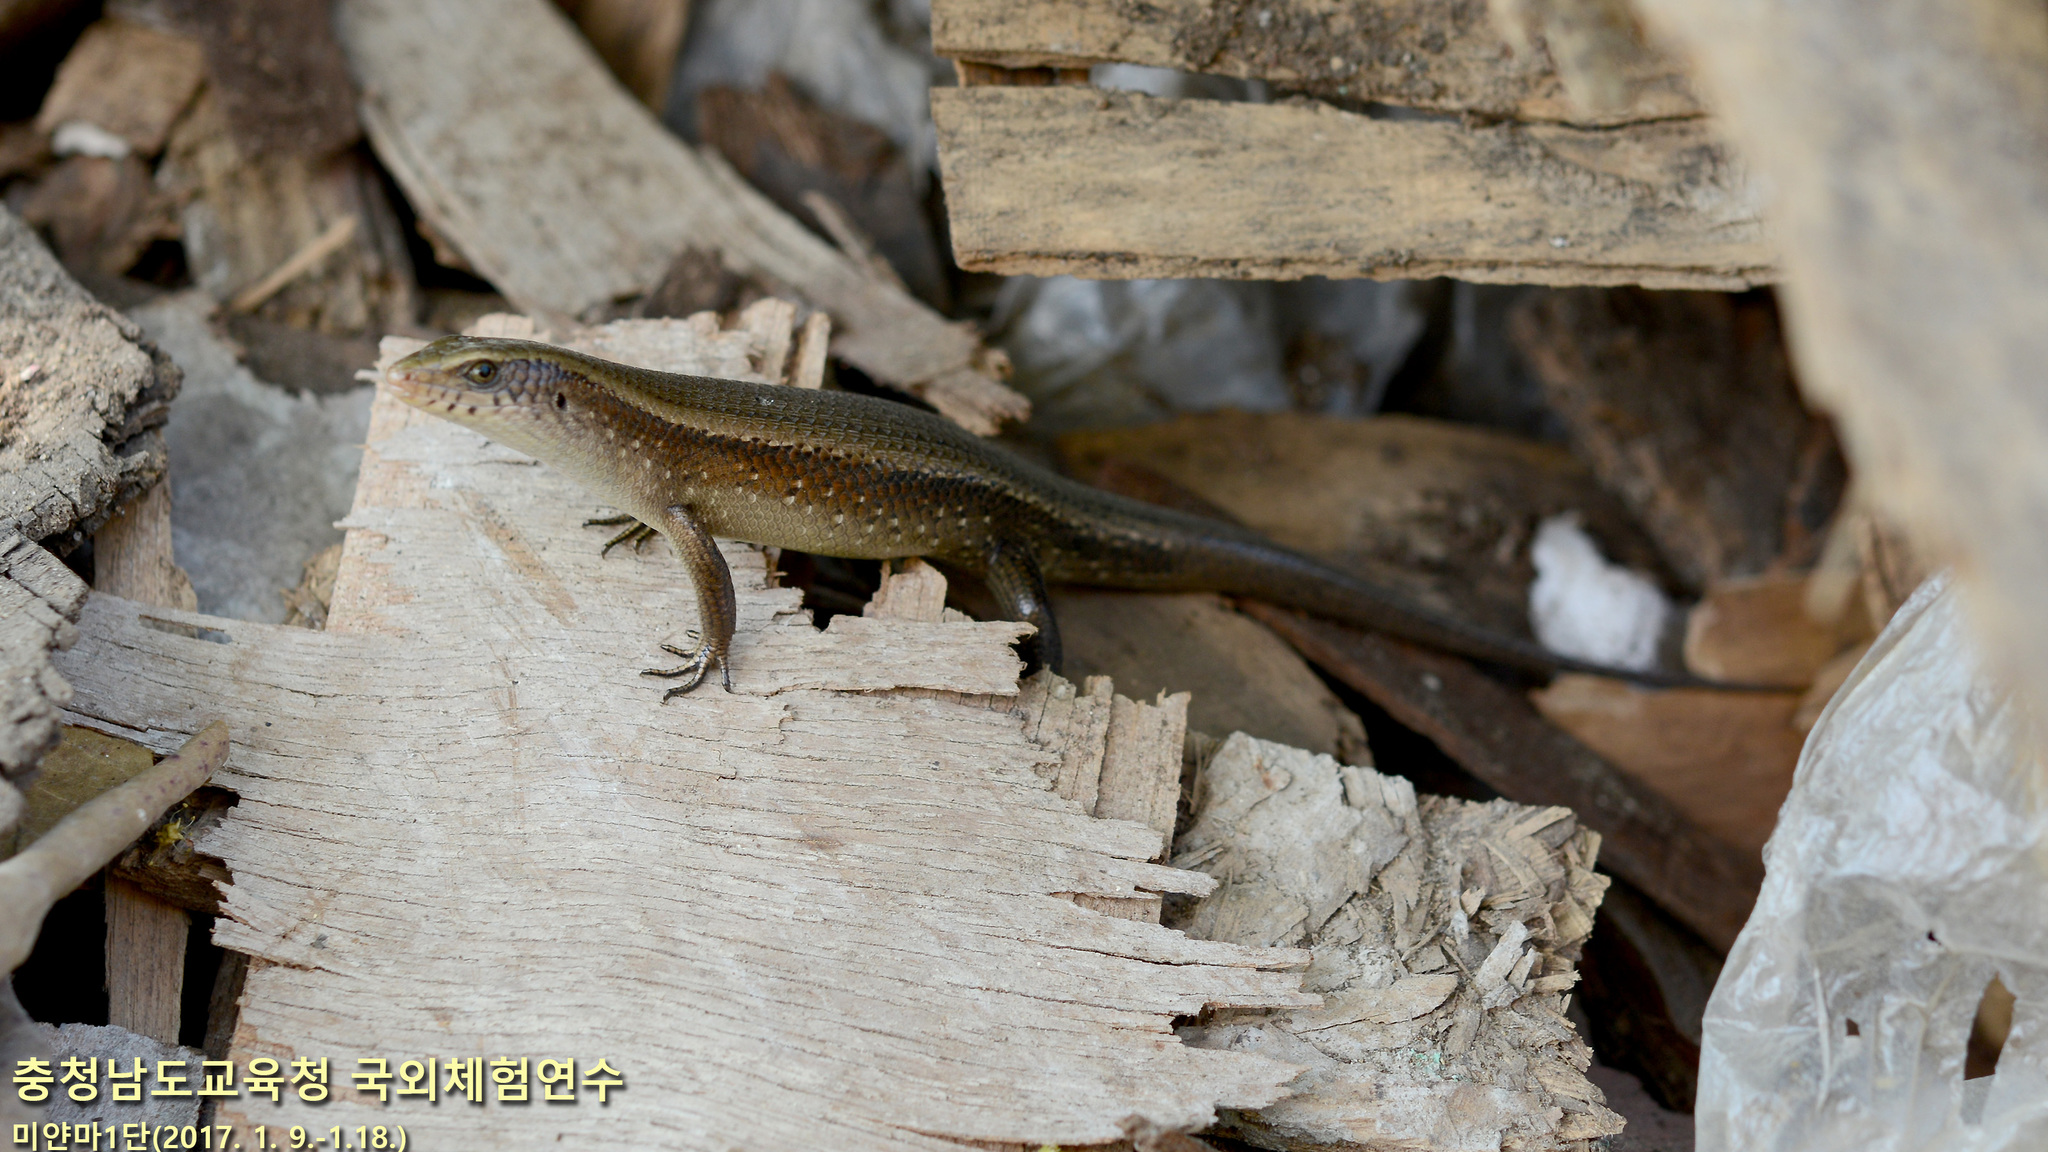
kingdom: Animalia
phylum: Chordata
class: Squamata
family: Scincidae
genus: Eutropis
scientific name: Eutropis multifasciata
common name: Common mabuya
